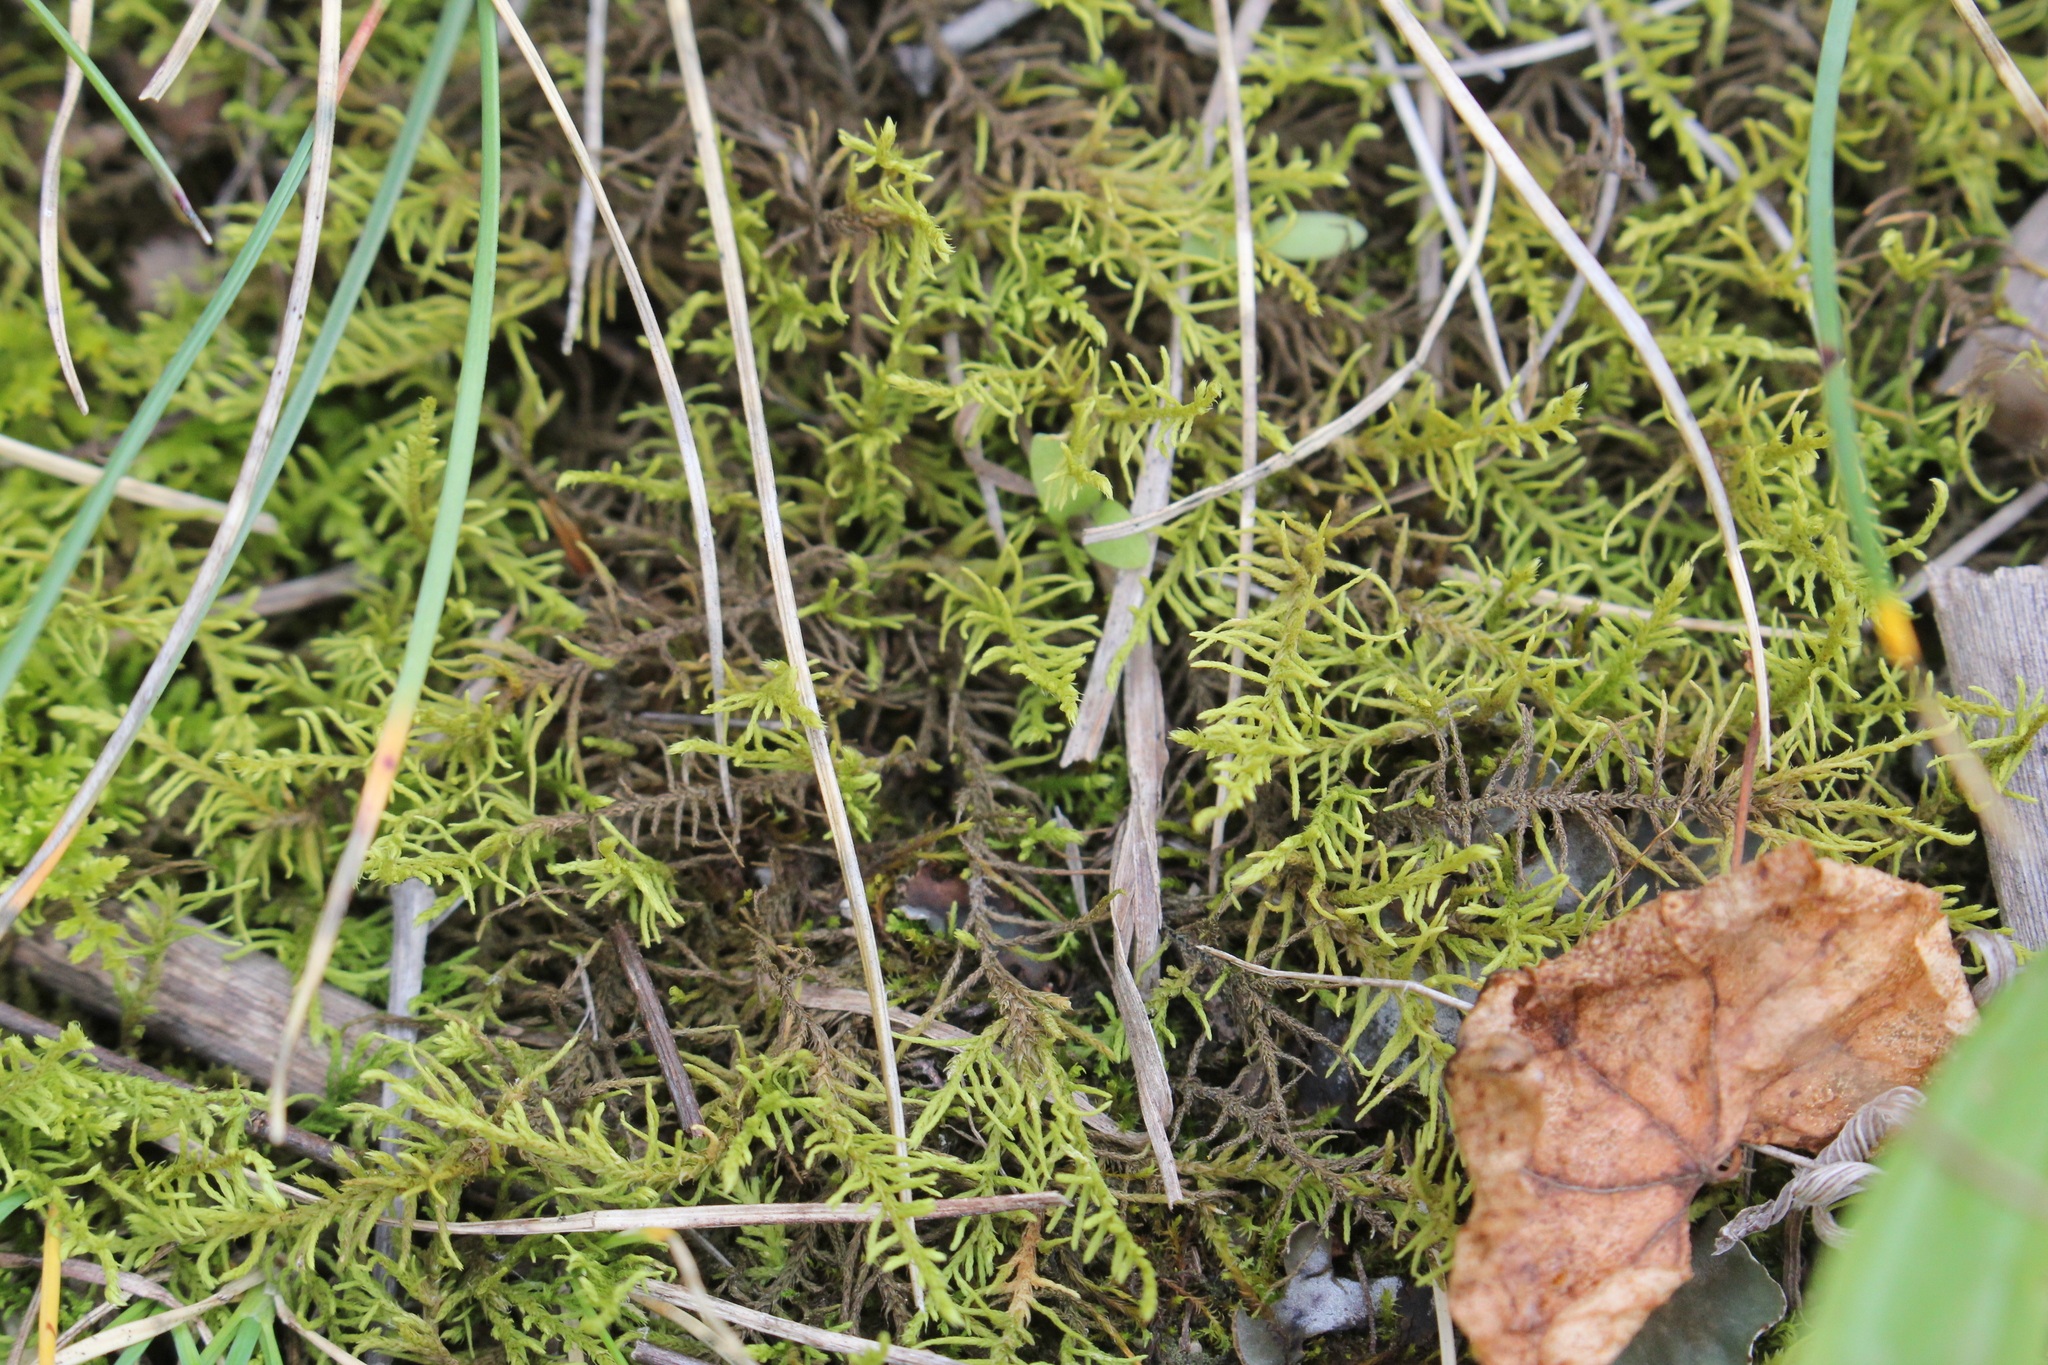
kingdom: Plantae
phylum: Bryophyta
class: Bryopsida
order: Hypnales
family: Thuidiaceae
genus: Abietinella
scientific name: Abietinella abietina
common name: Wiry fern moss
